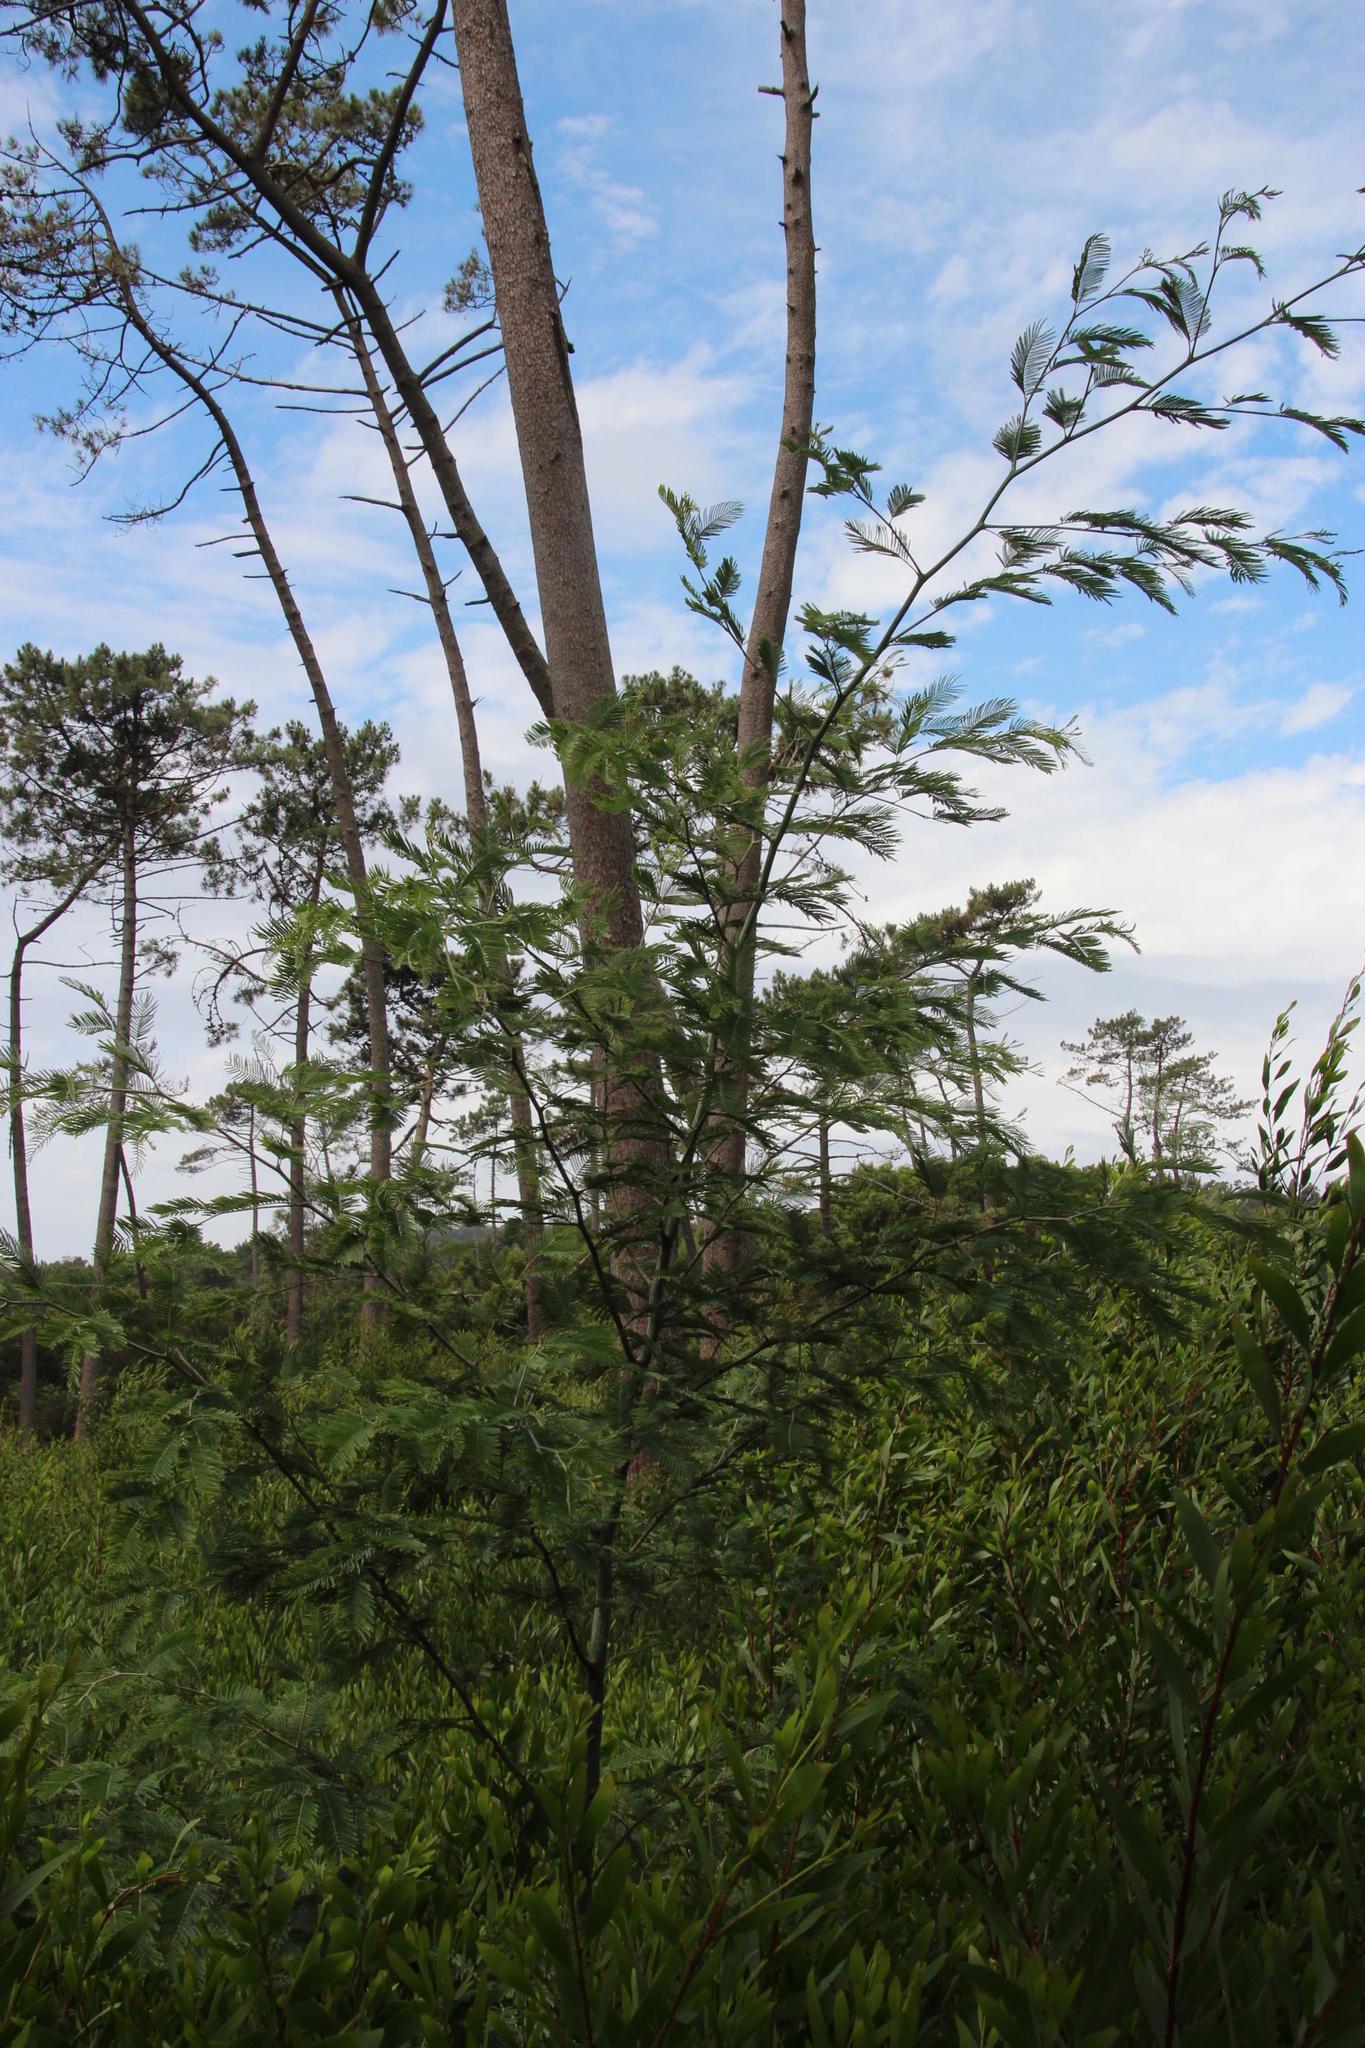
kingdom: Plantae
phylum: Tracheophyta
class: Magnoliopsida
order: Fabales
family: Fabaceae
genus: Acacia
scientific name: Acacia dealbata
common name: Silver wattle
